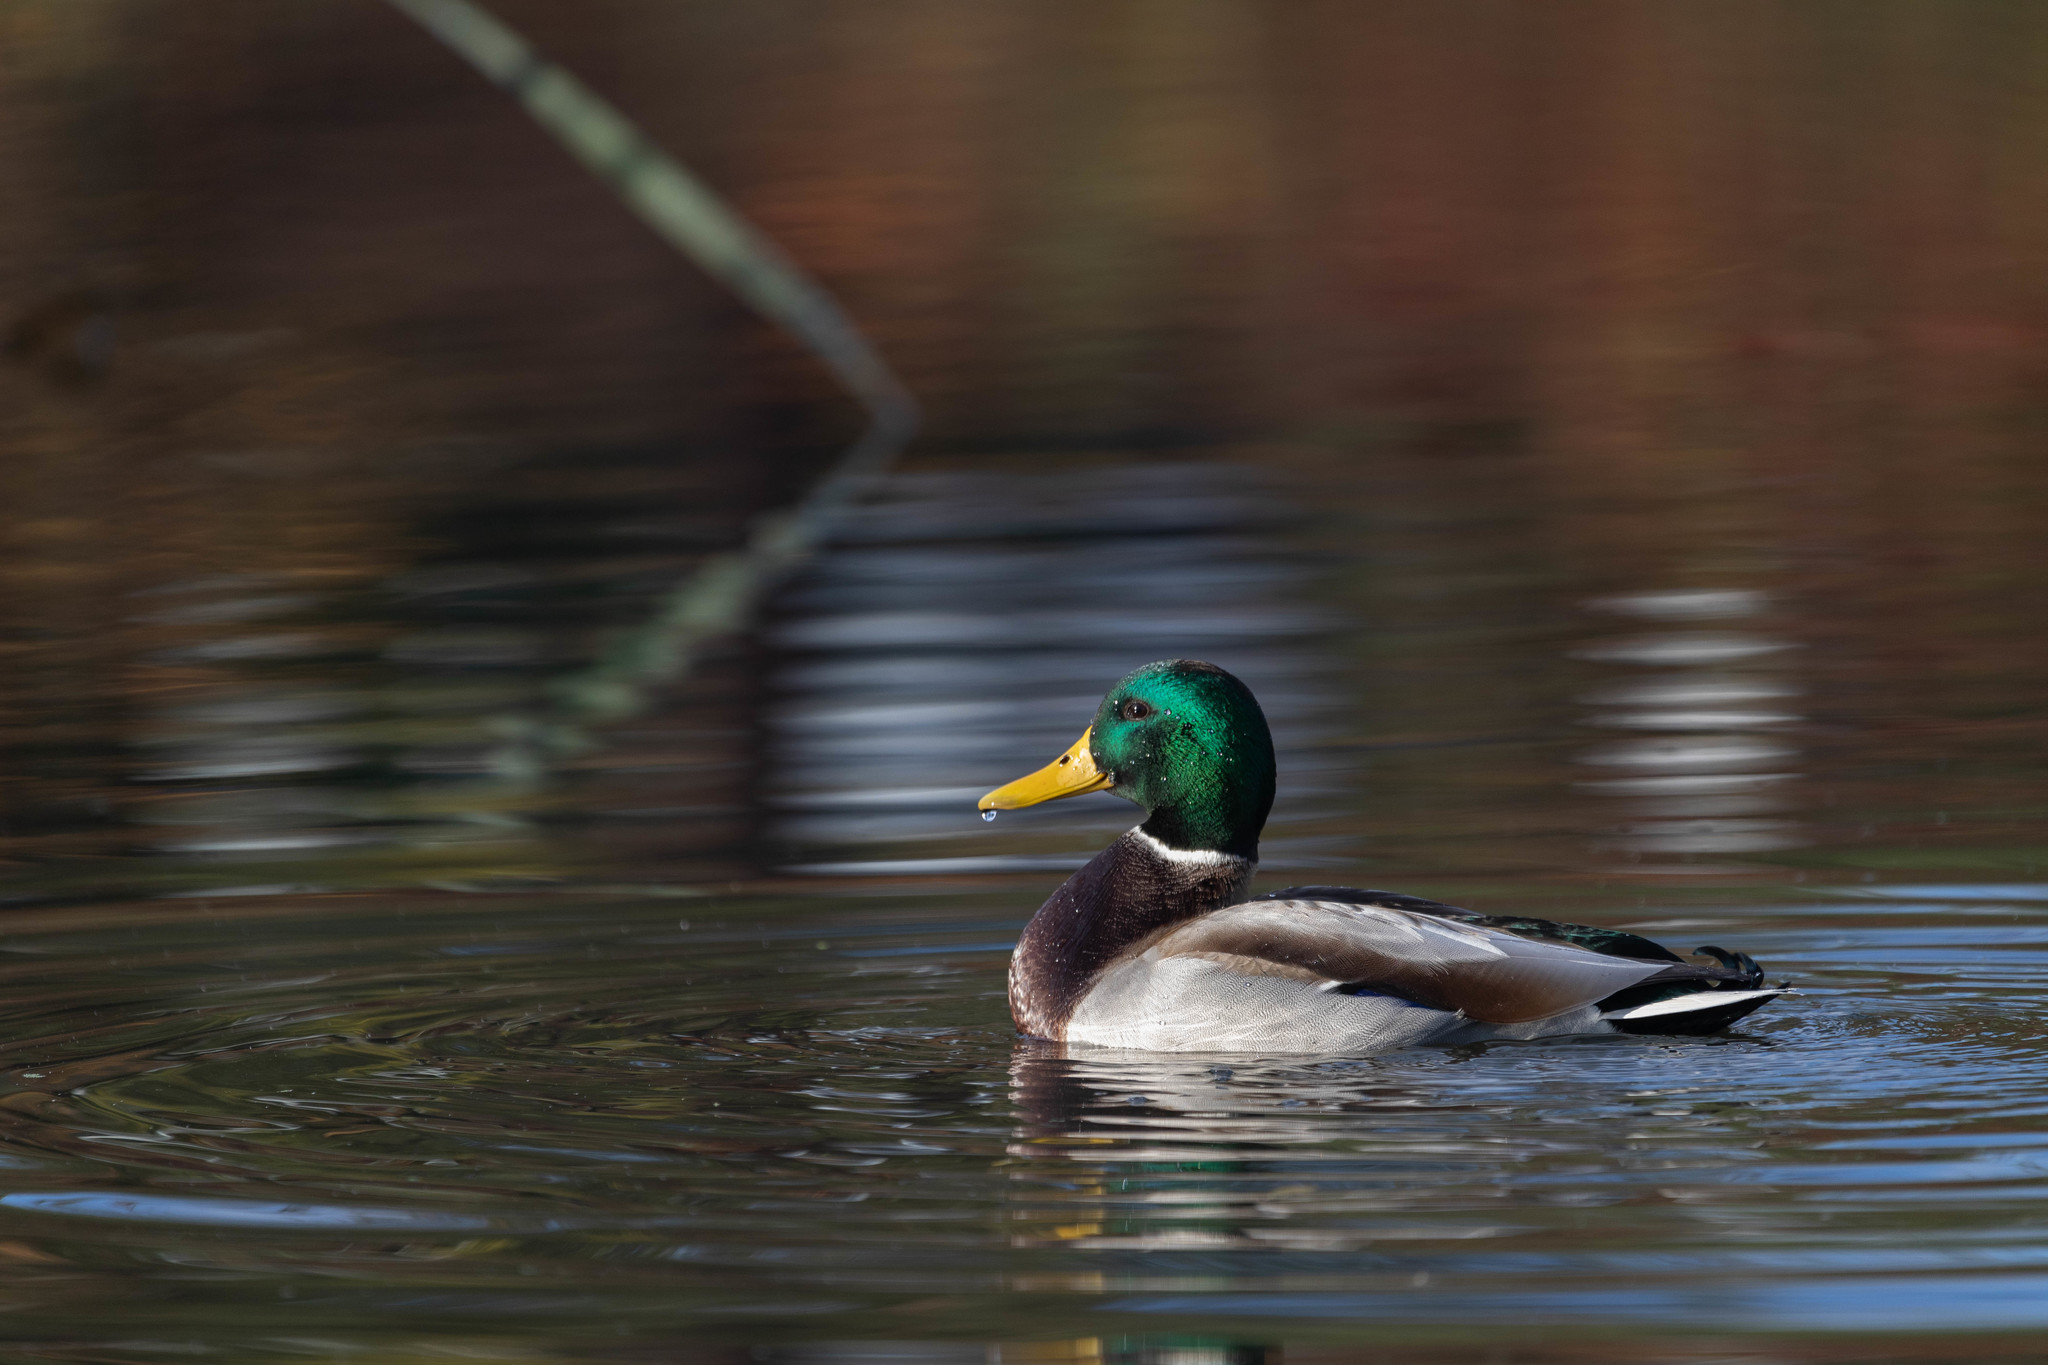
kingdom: Animalia
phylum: Chordata
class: Aves
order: Anseriformes
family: Anatidae
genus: Anas
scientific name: Anas platyrhynchos
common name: Mallard
